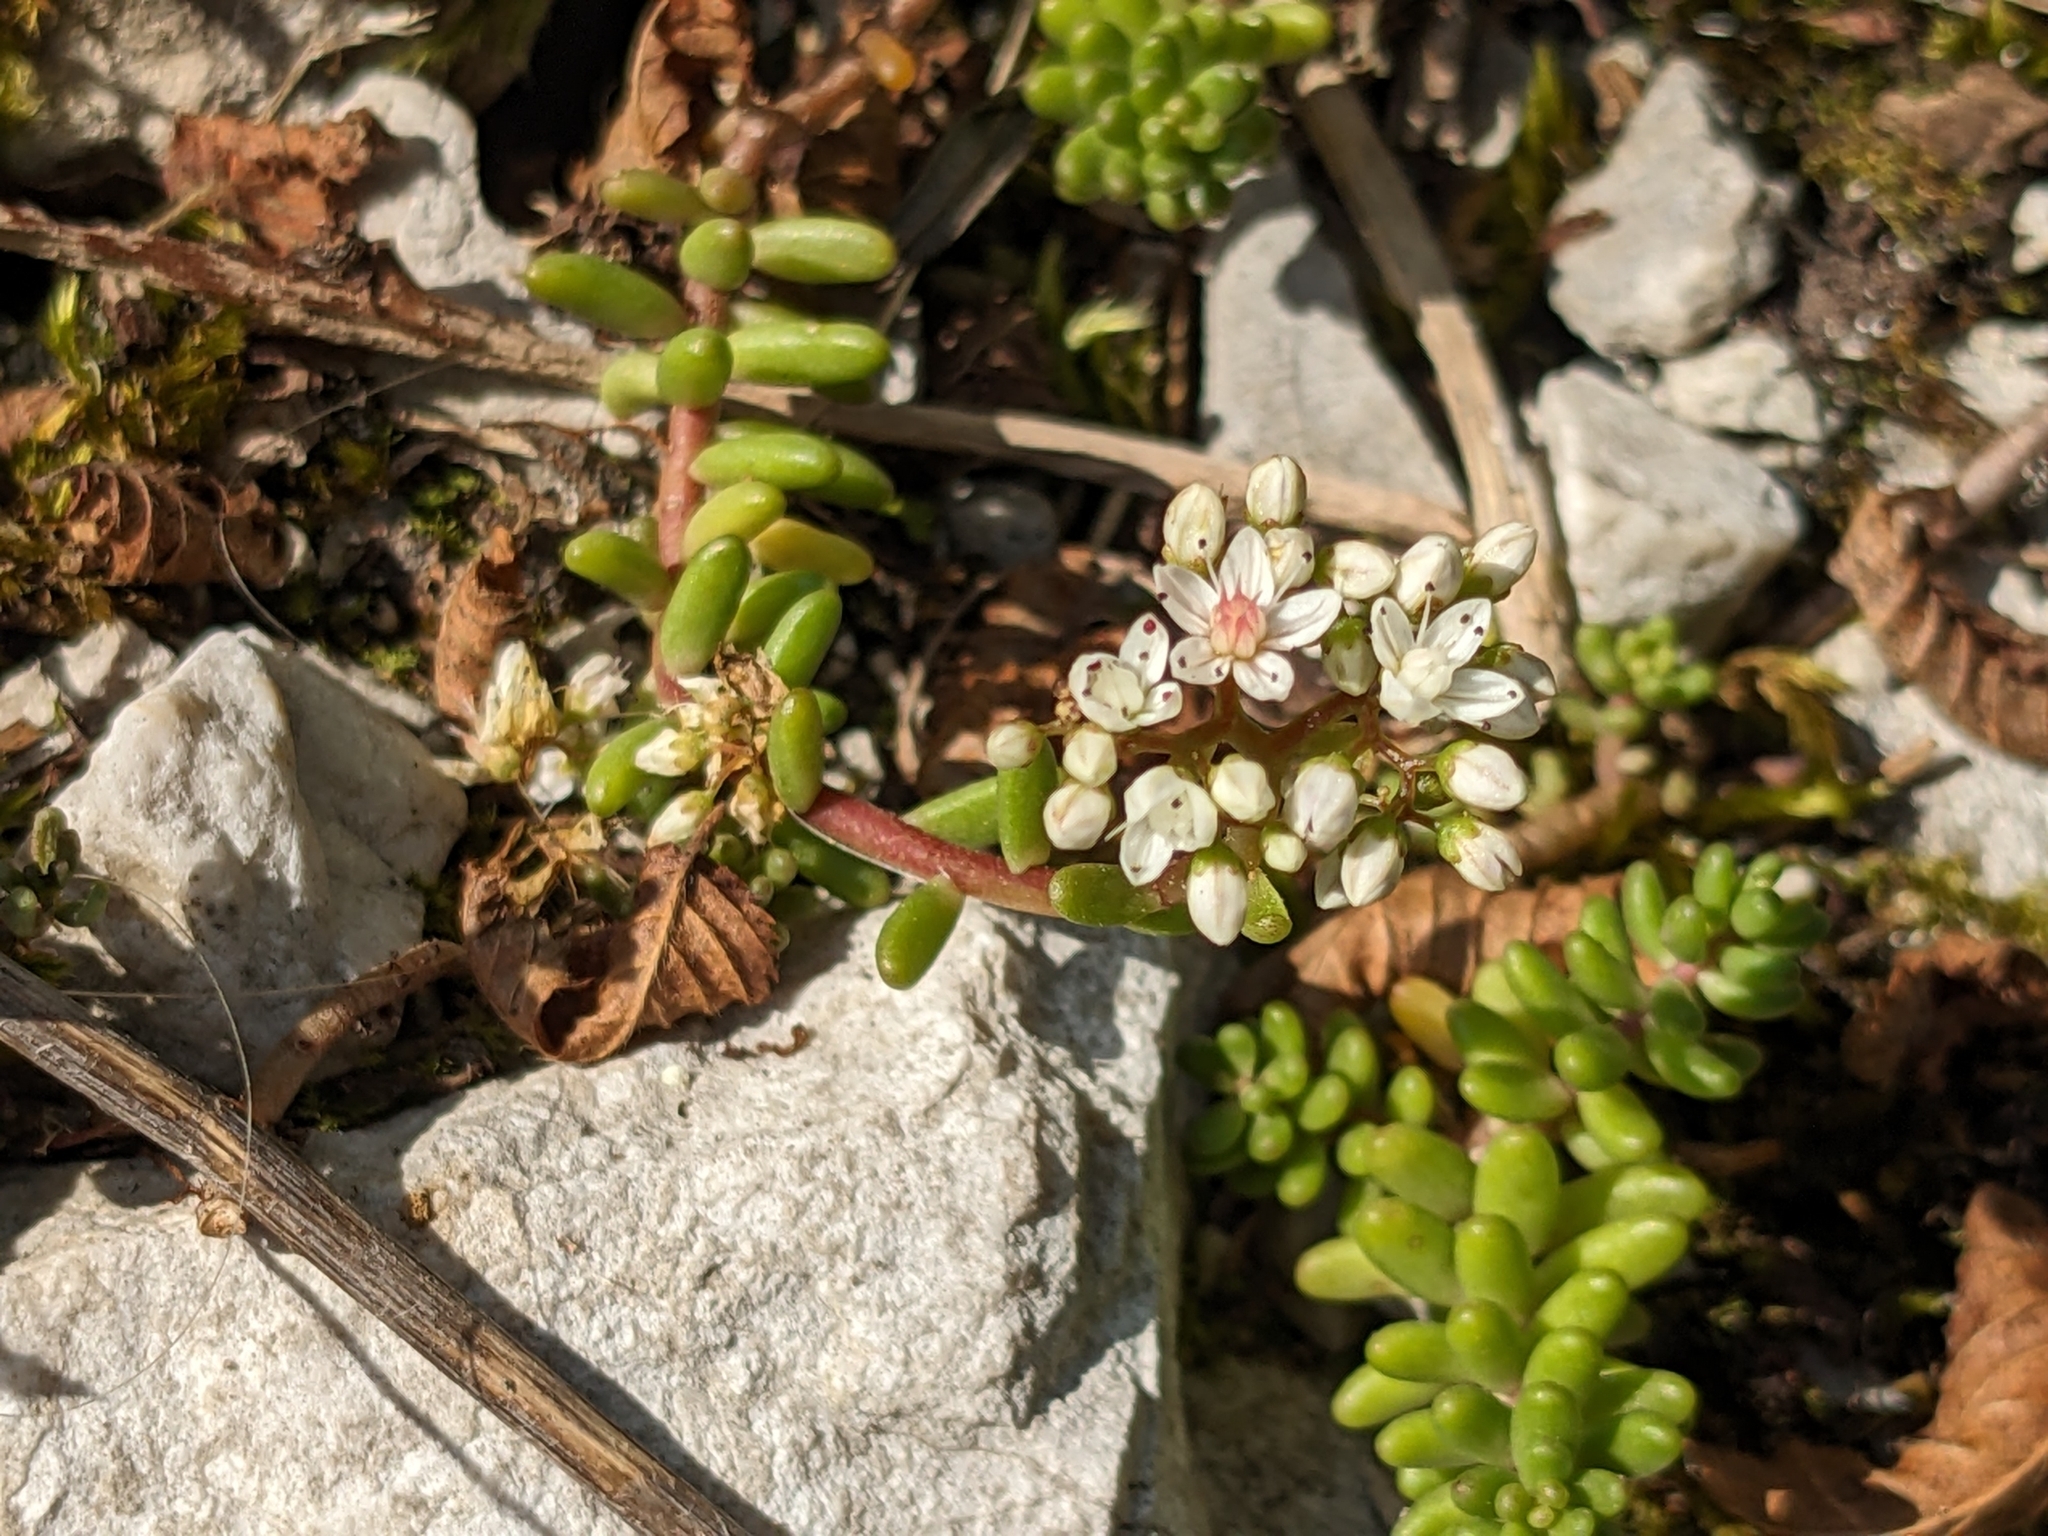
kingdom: Plantae
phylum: Tracheophyta
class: Magnoliopsida
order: Saxifragales
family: Crassulaceae
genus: Sedum
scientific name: Sedum album
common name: White stonecrop
